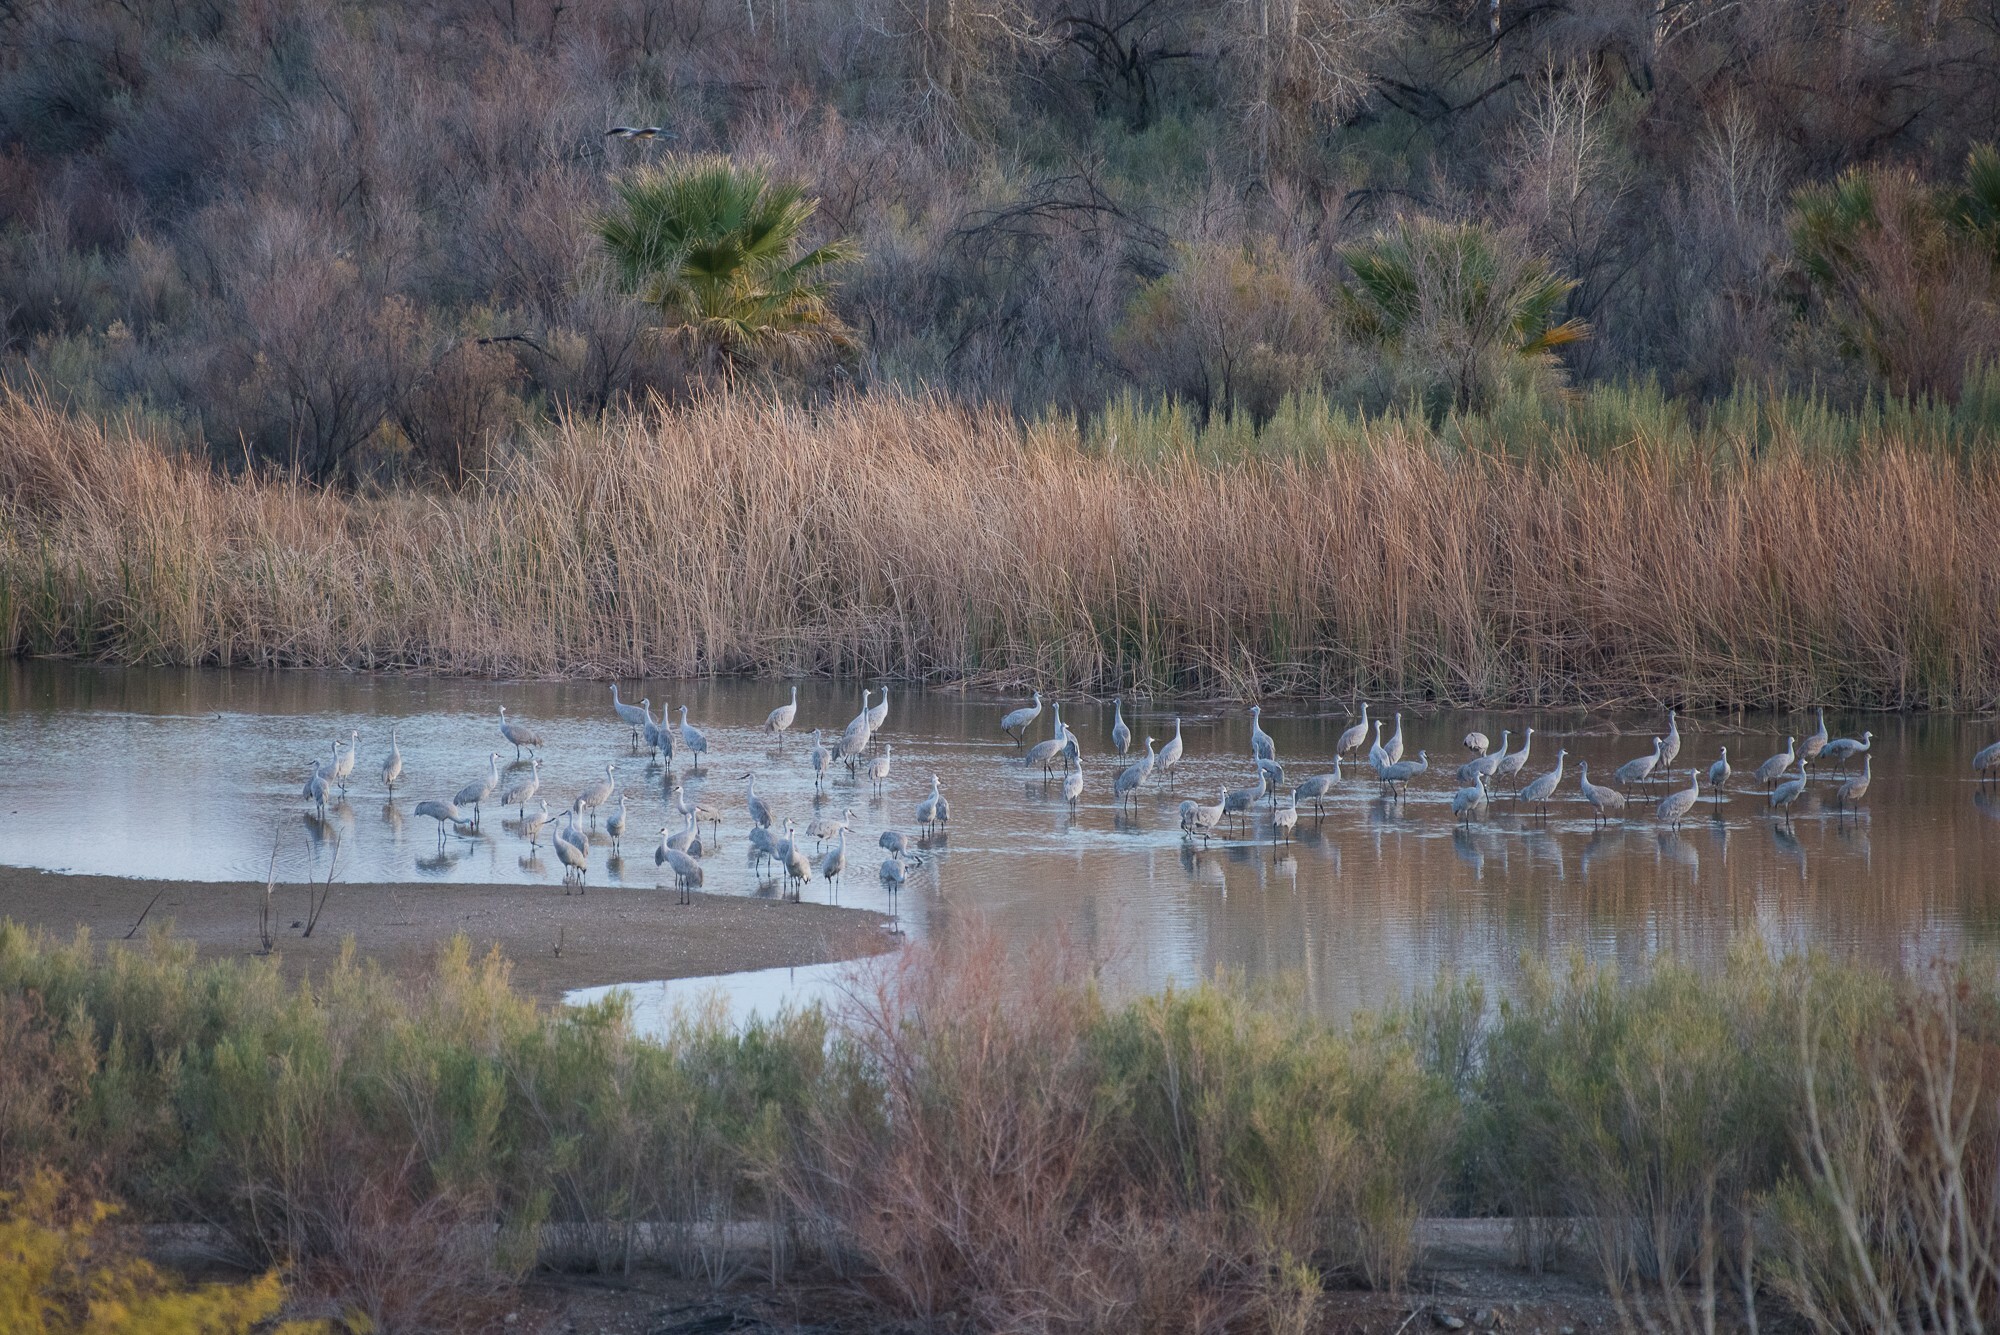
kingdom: Animalia
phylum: Chordata
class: Aves
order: Gruiformes
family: Gruidae
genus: Grus
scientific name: Grus canadensis
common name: Sandhill crane
